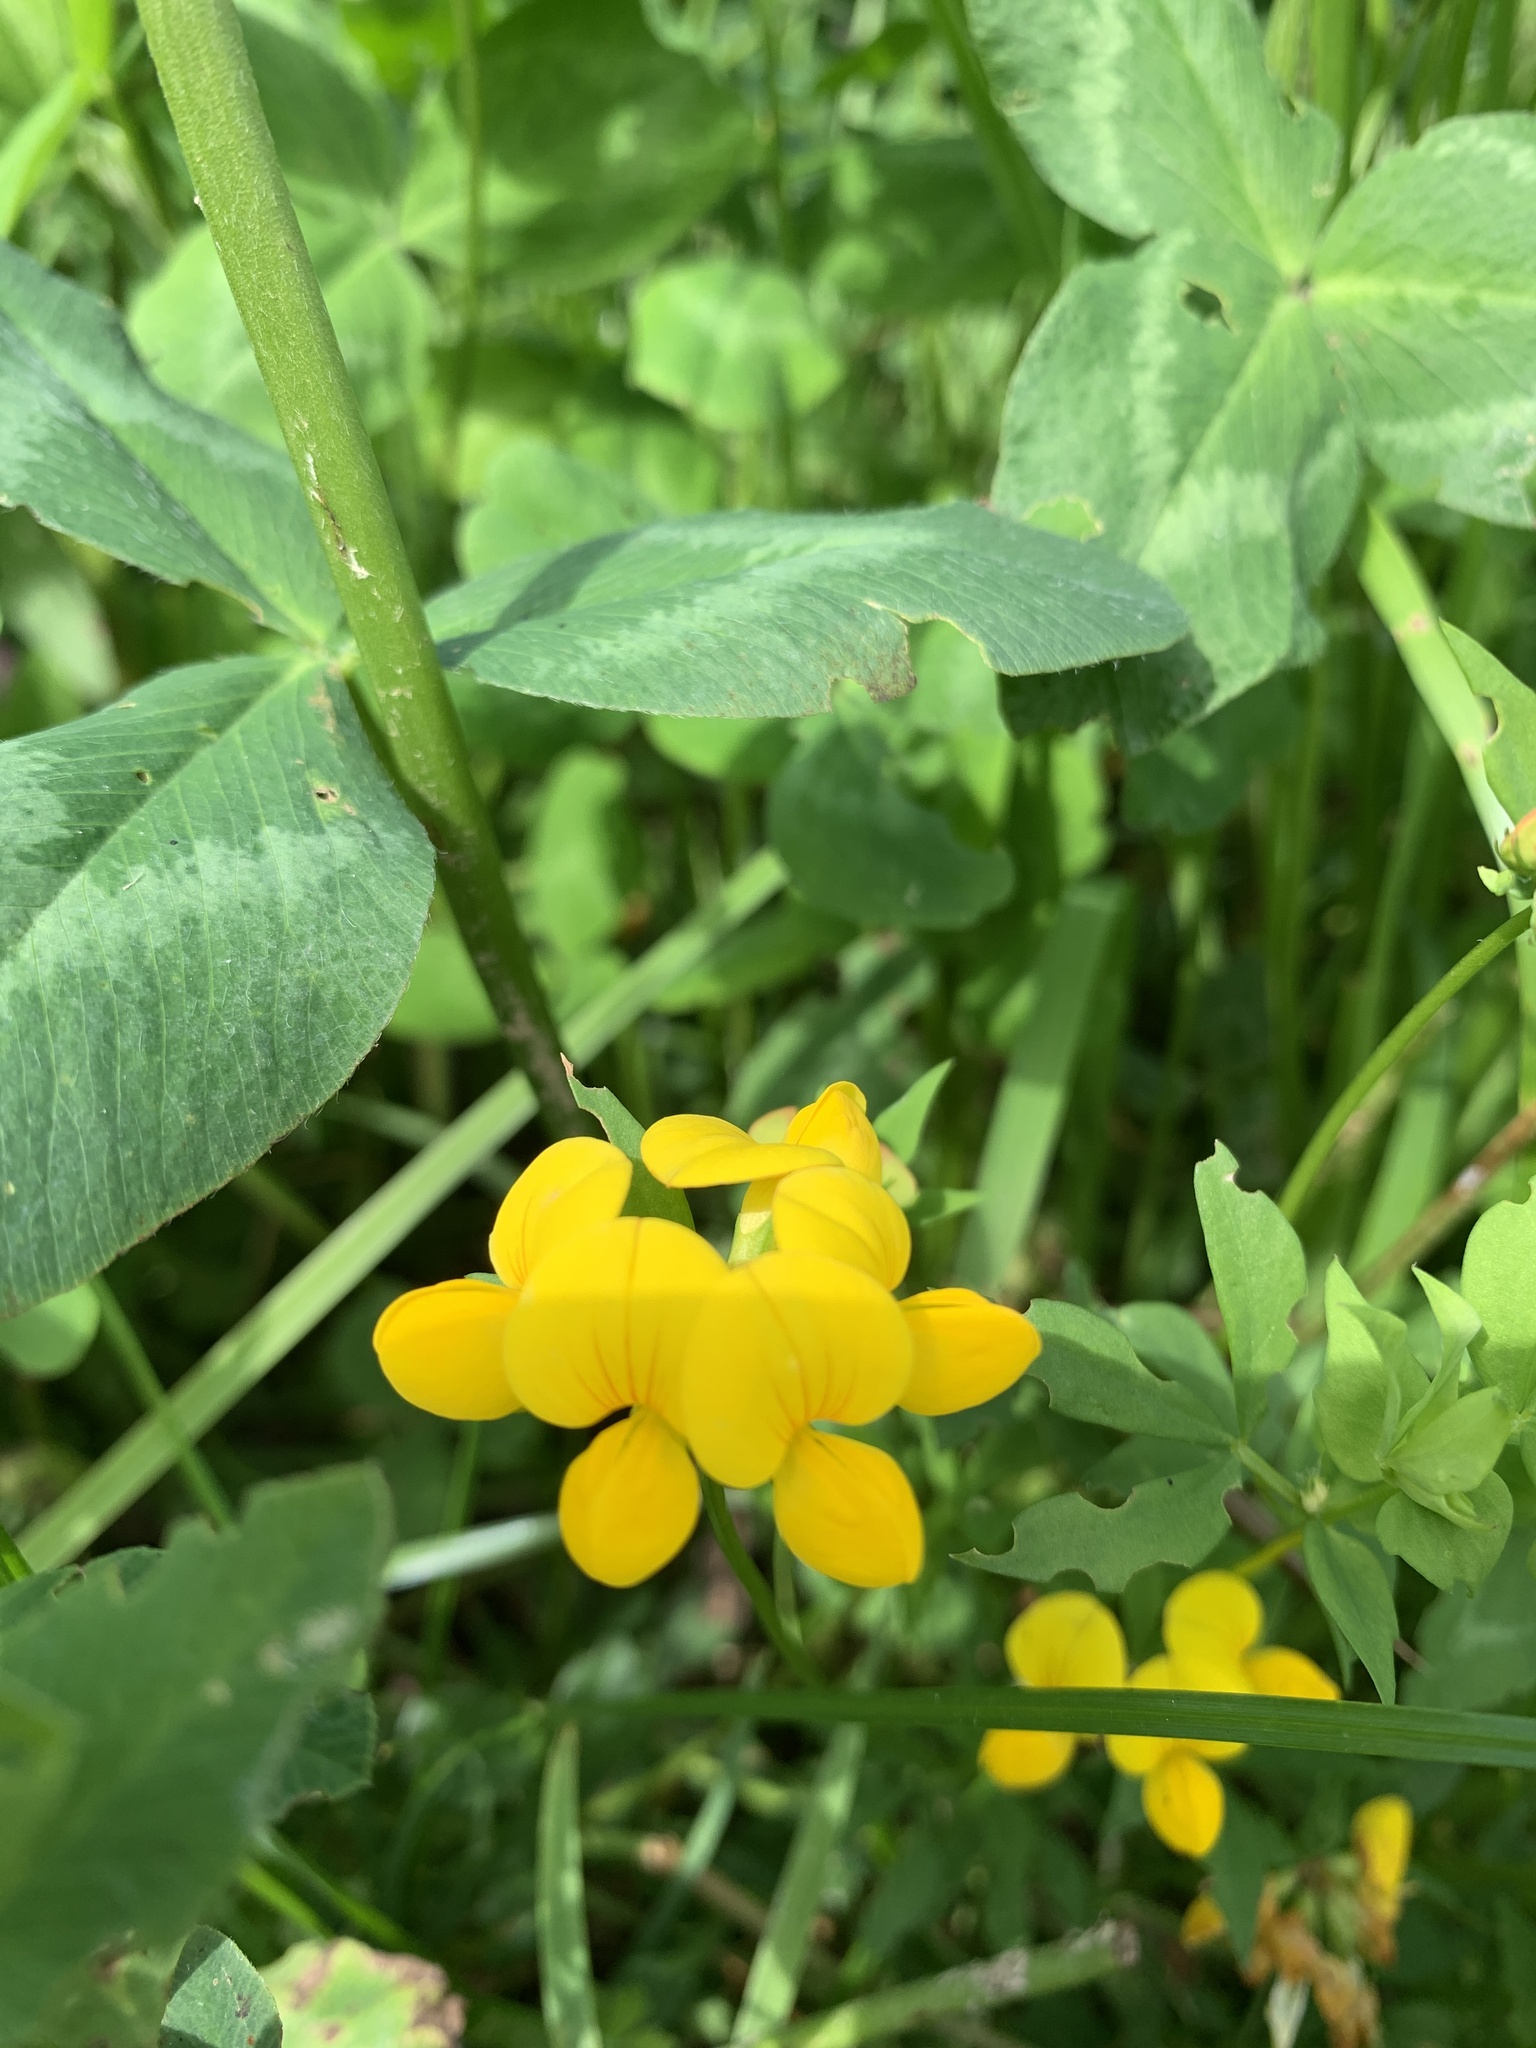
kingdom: Plantae
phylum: Tracheophyta
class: Magnoliopsida
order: Fabales
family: Fabaceae
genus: Lotus
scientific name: Lotus corniculatus
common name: Common bird's-foot-trefoil
